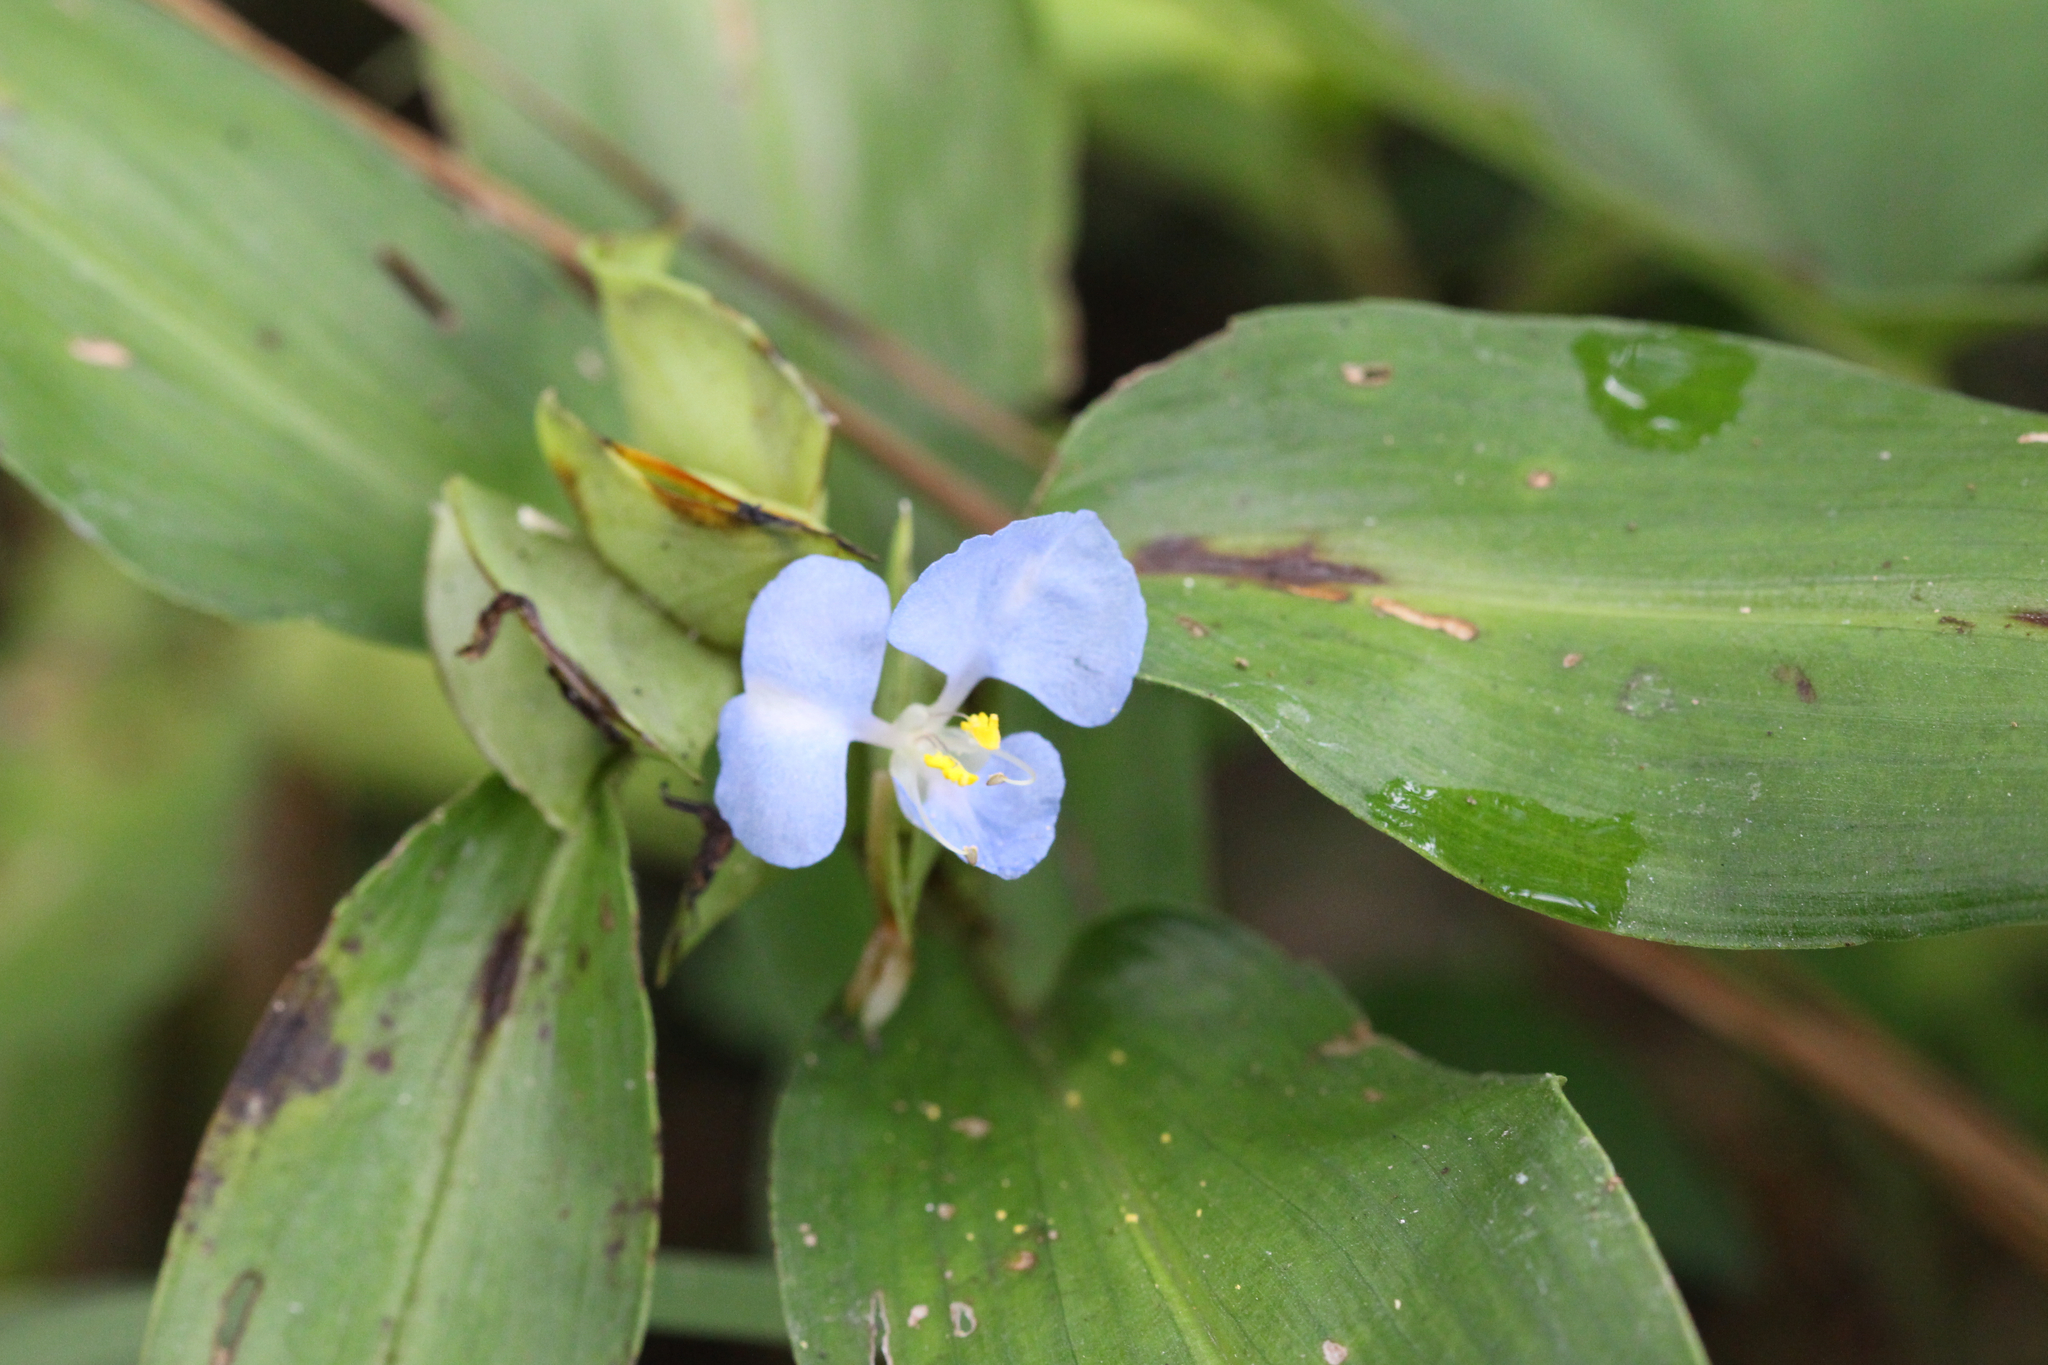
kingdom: Plantae
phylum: Tracheophyta
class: Liliopsida
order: Commelinales
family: Commelinaceae
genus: Commelina
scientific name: Commelina virginica
